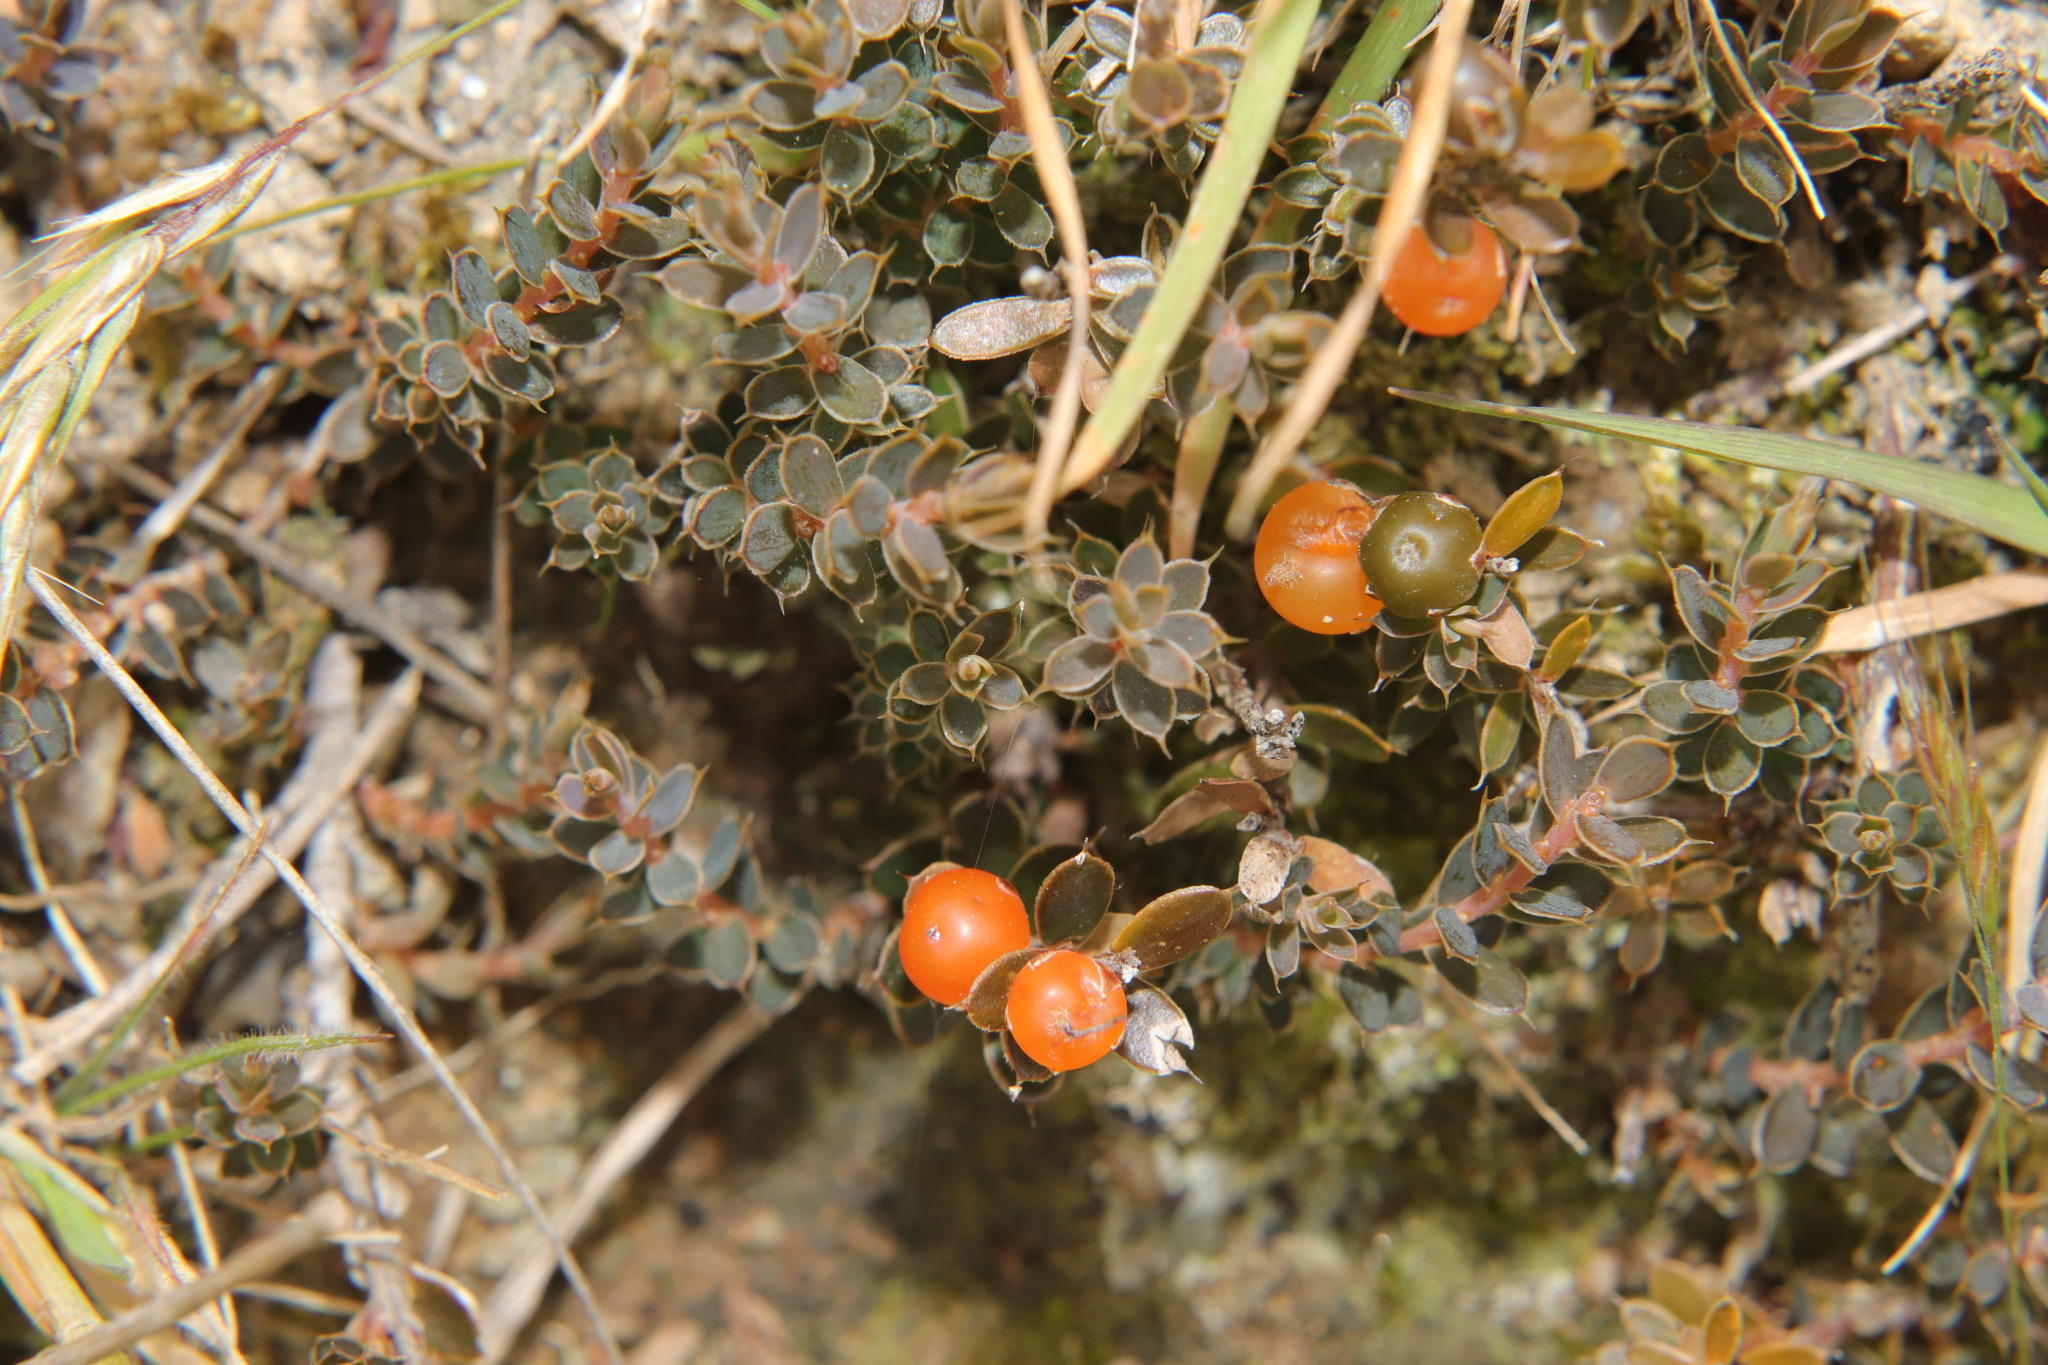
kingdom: Plantae
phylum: Tracheophyta
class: Magnoliopsida
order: Ericales
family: Ericaceae
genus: Styphelia
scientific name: Styphelia nesophila
